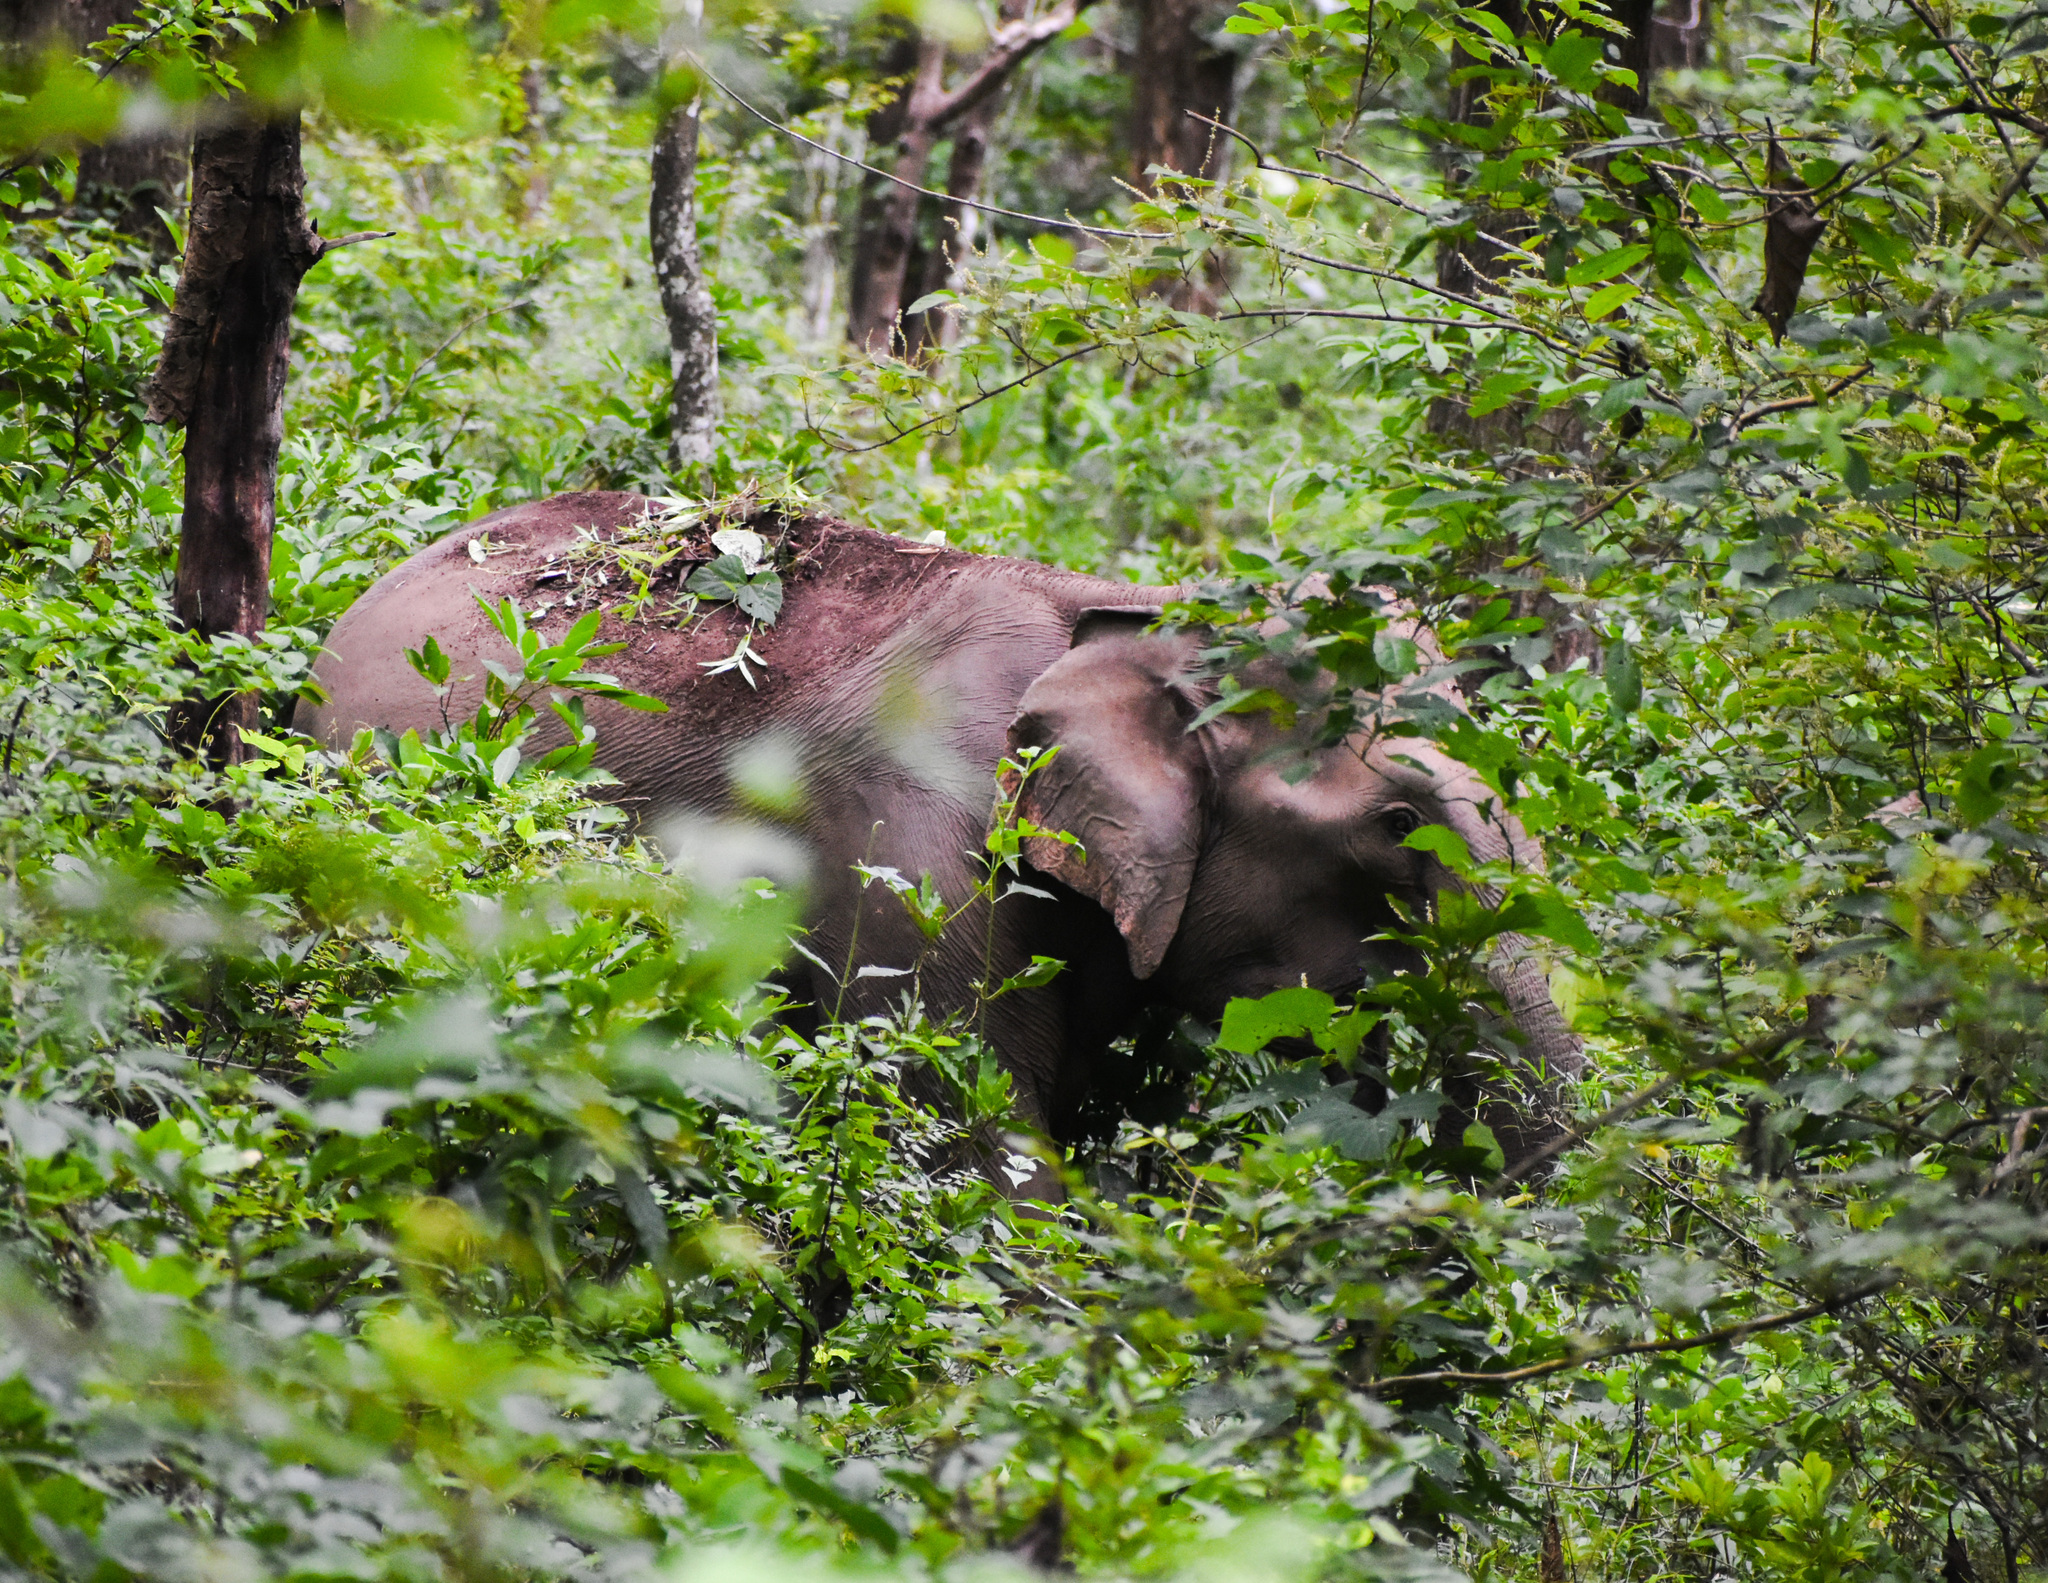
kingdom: Animalia
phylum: Chordata
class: Mammalia
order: Proboscidea
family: Elephantidae
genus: Elephas
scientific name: Elephas maximus
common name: Asian elephant
